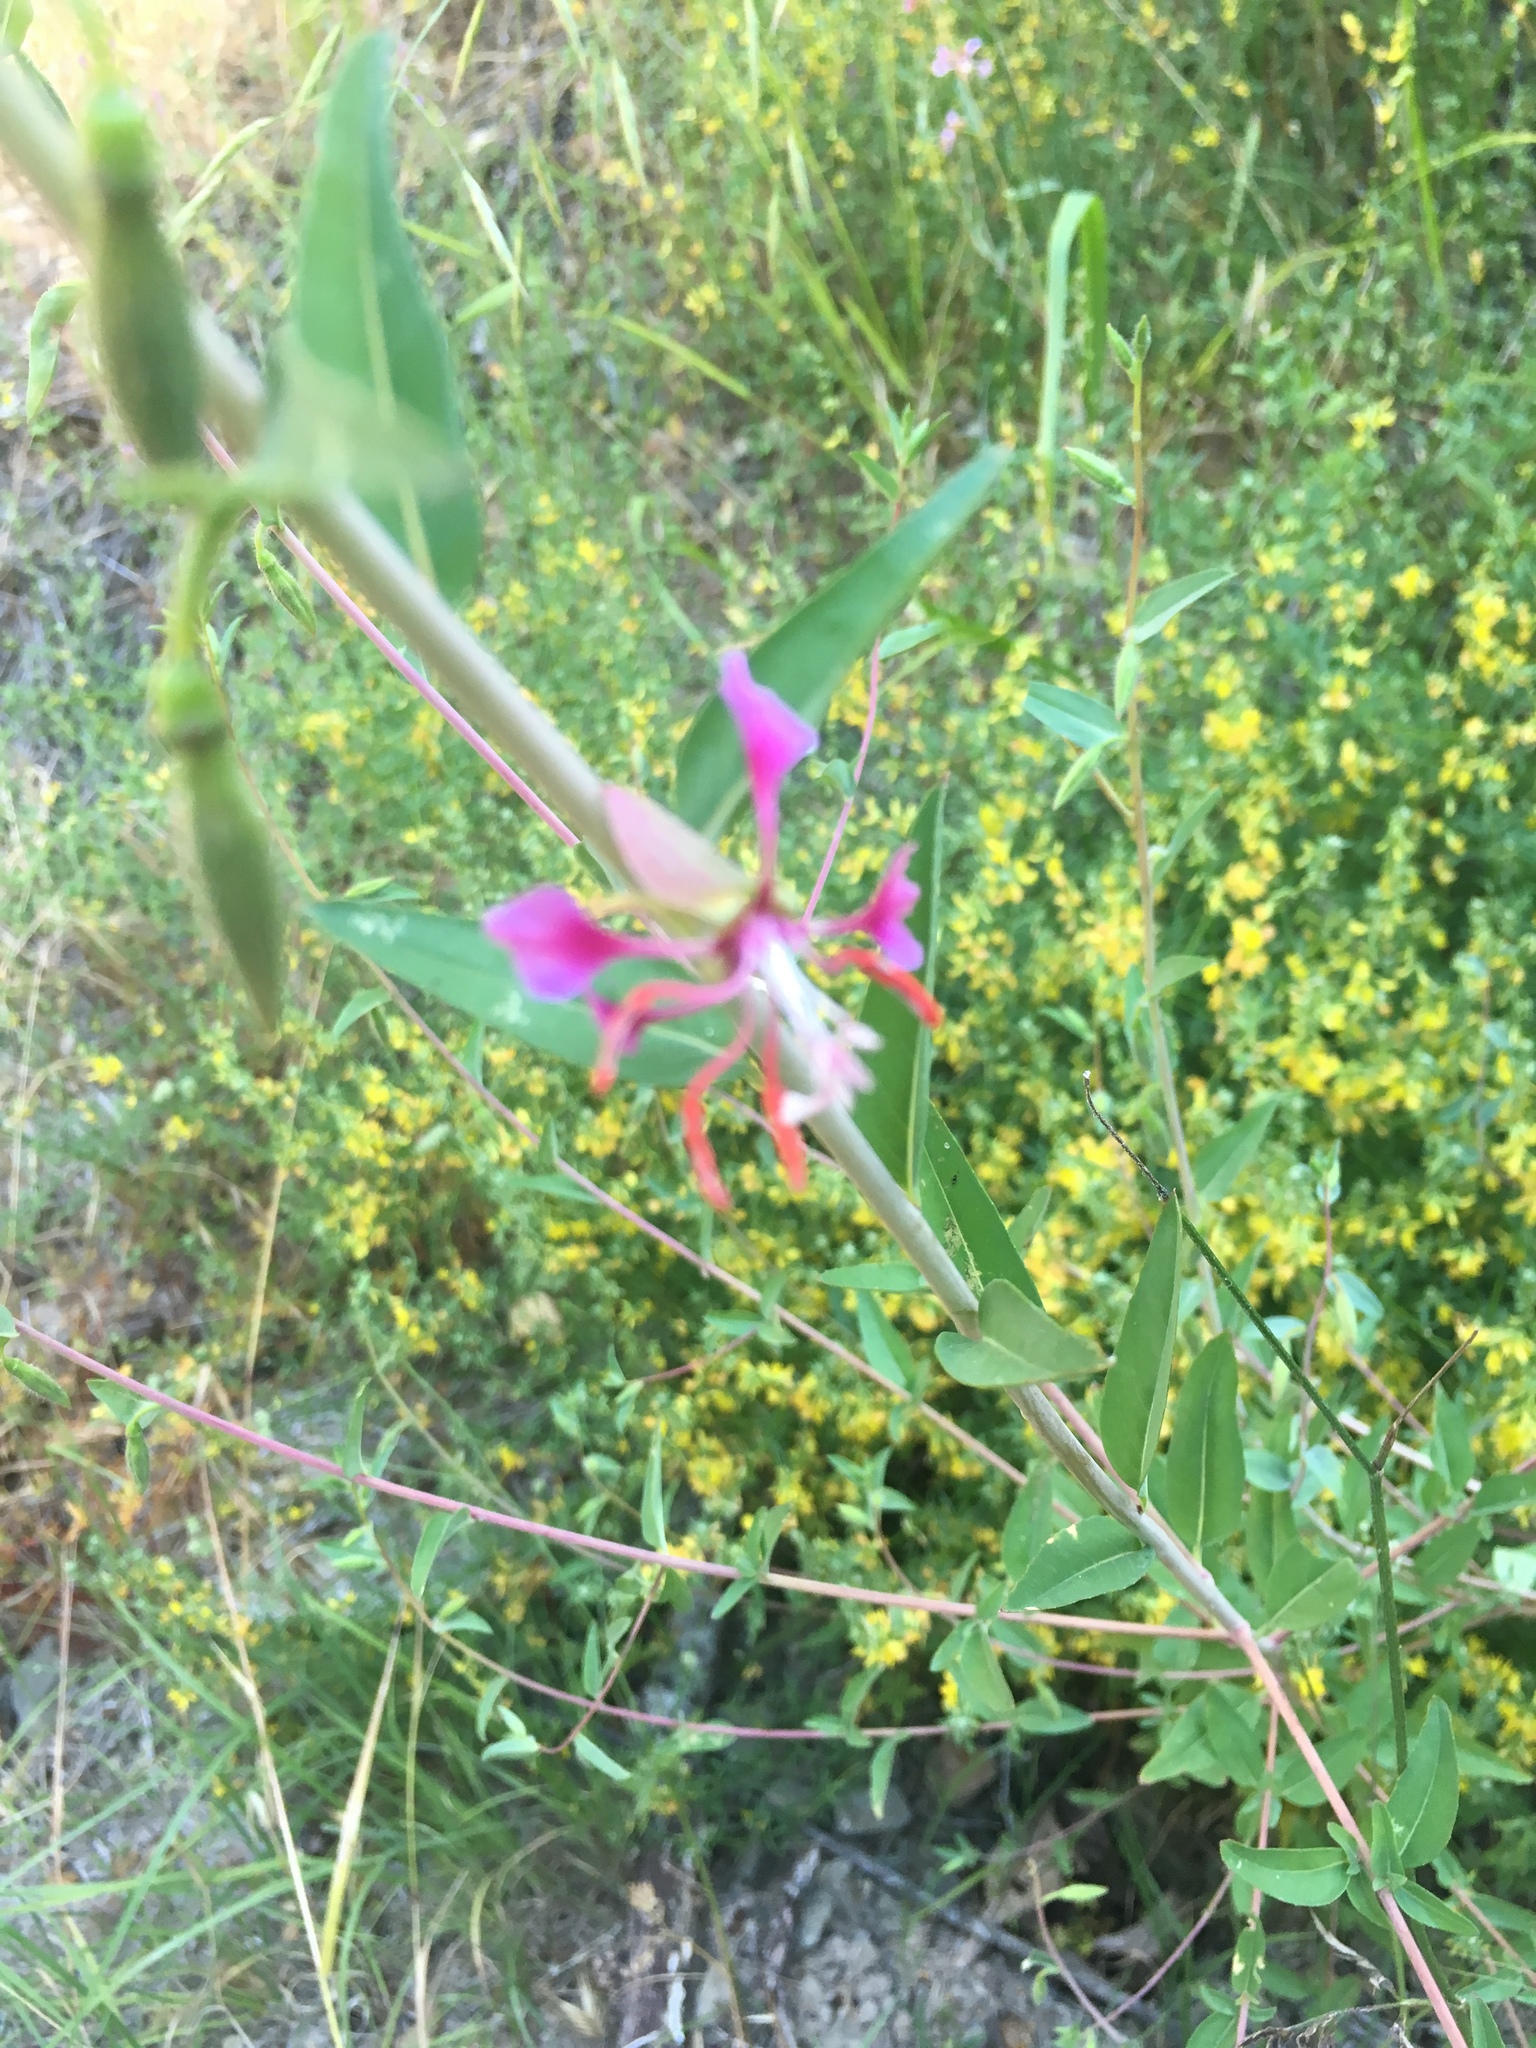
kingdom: Plantae
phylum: Tracheophyta
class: Magnoliopsida
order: Myrtales
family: Onagraceae
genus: Clarkia
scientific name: Clarkia unguiculata
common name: Clarkia
